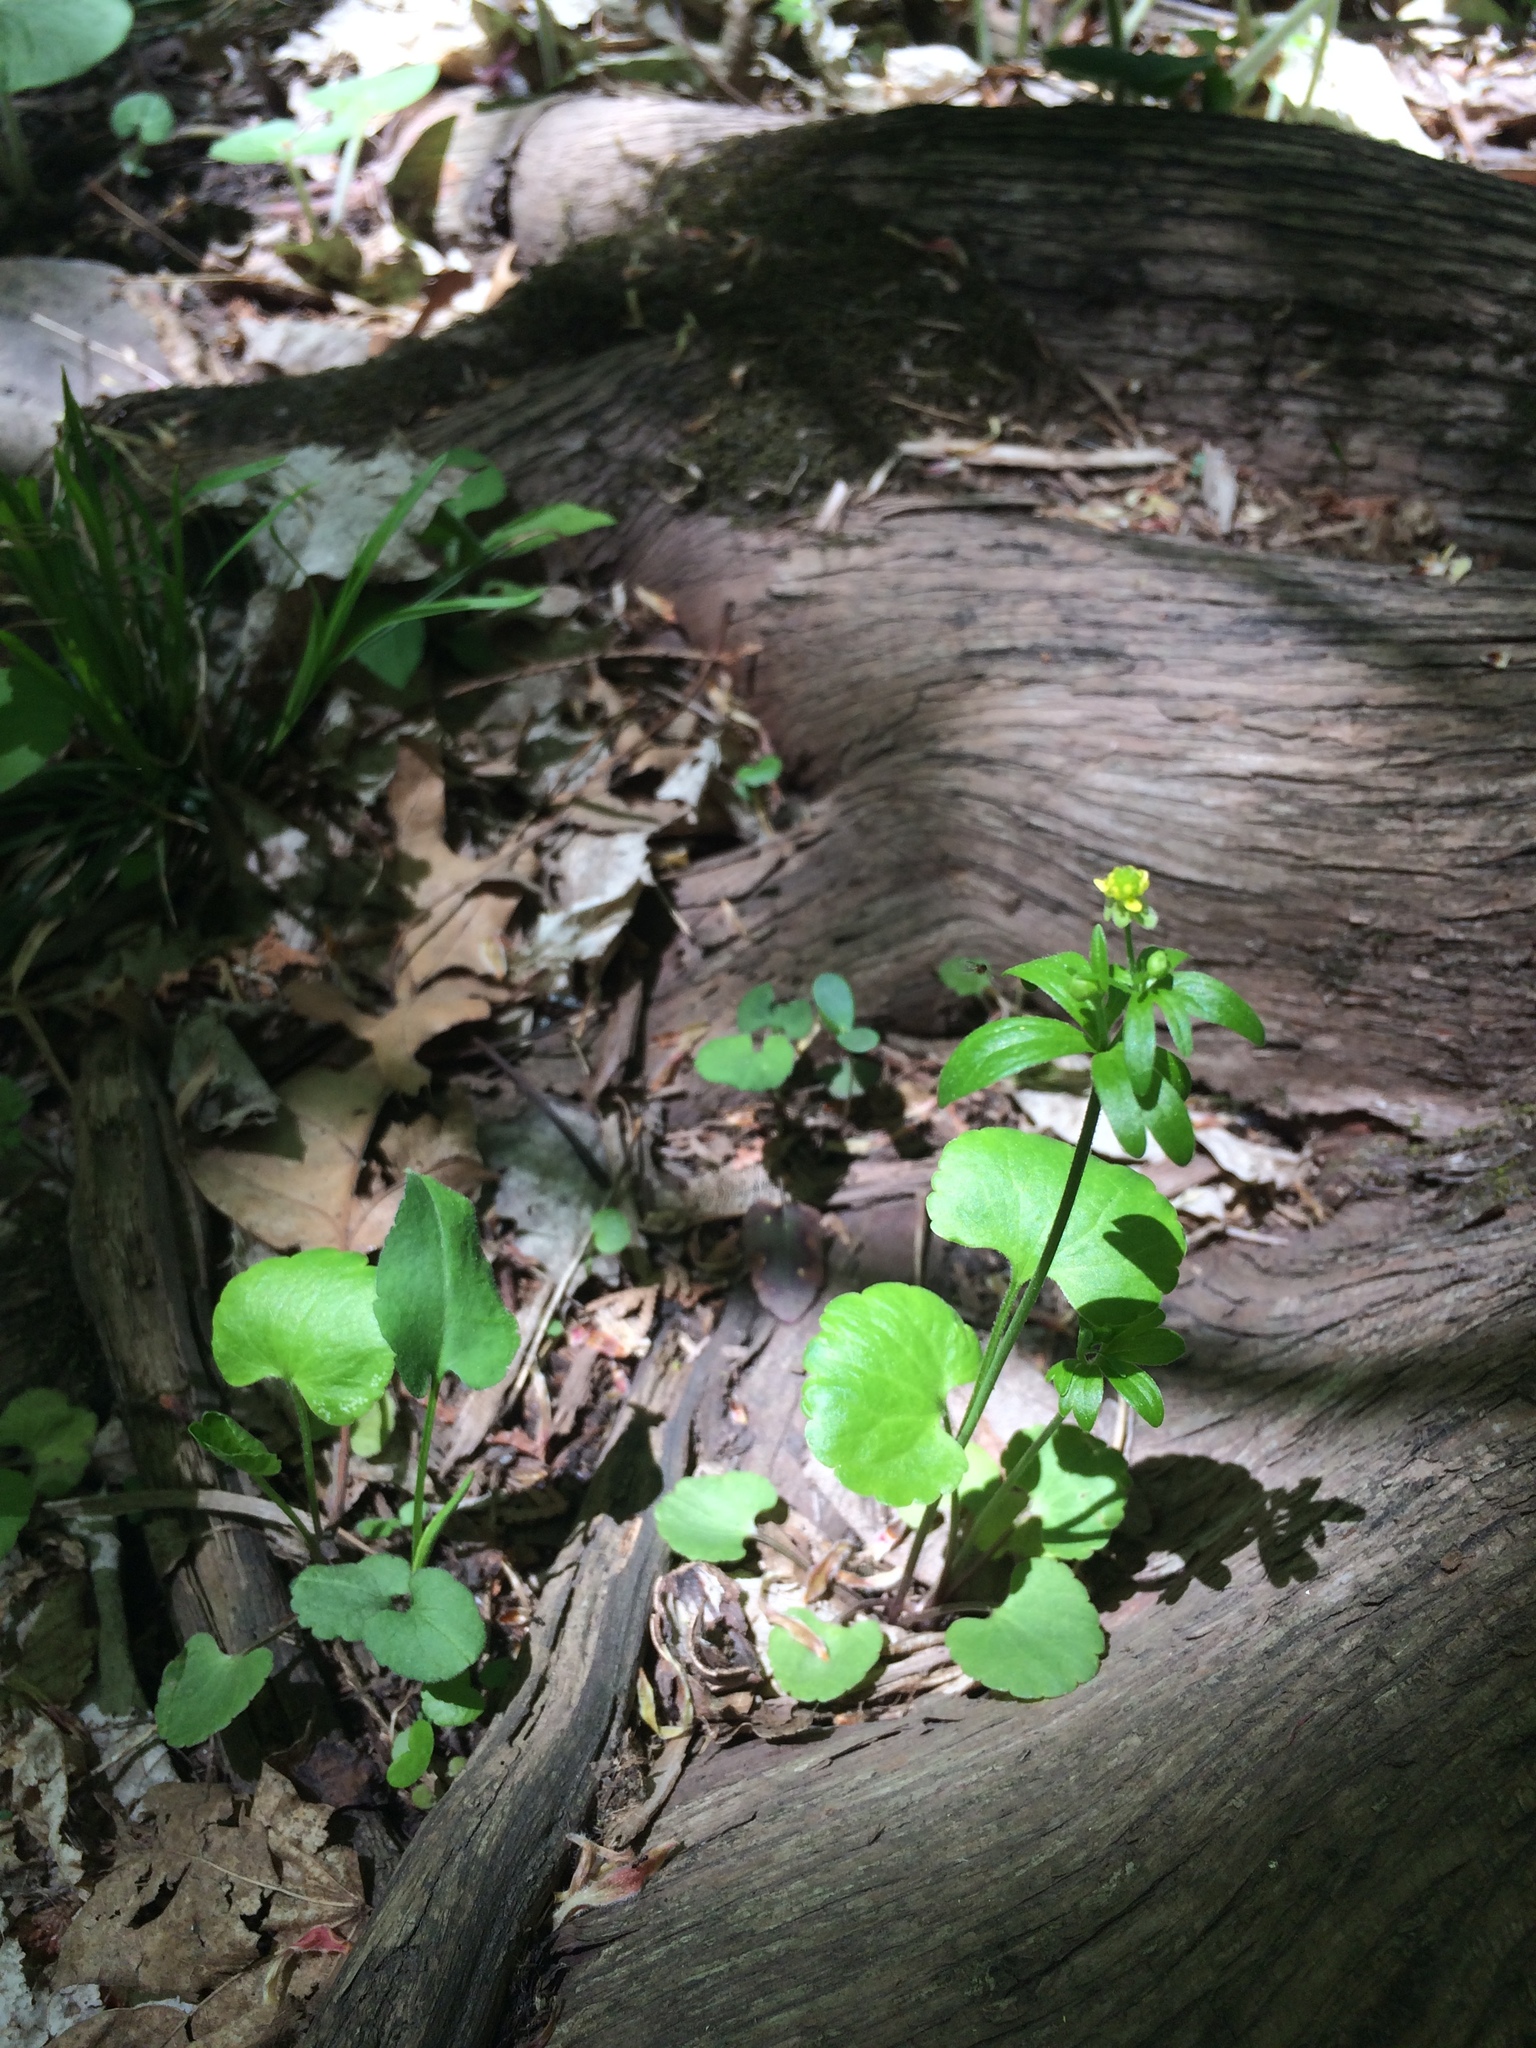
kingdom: Plantae
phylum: Tracheophyta
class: Magnoliopsida
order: Ranunculales
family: Ranunculaceae
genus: Ranunculus
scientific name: Ranunculus abortivus
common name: Early wood buttercup
